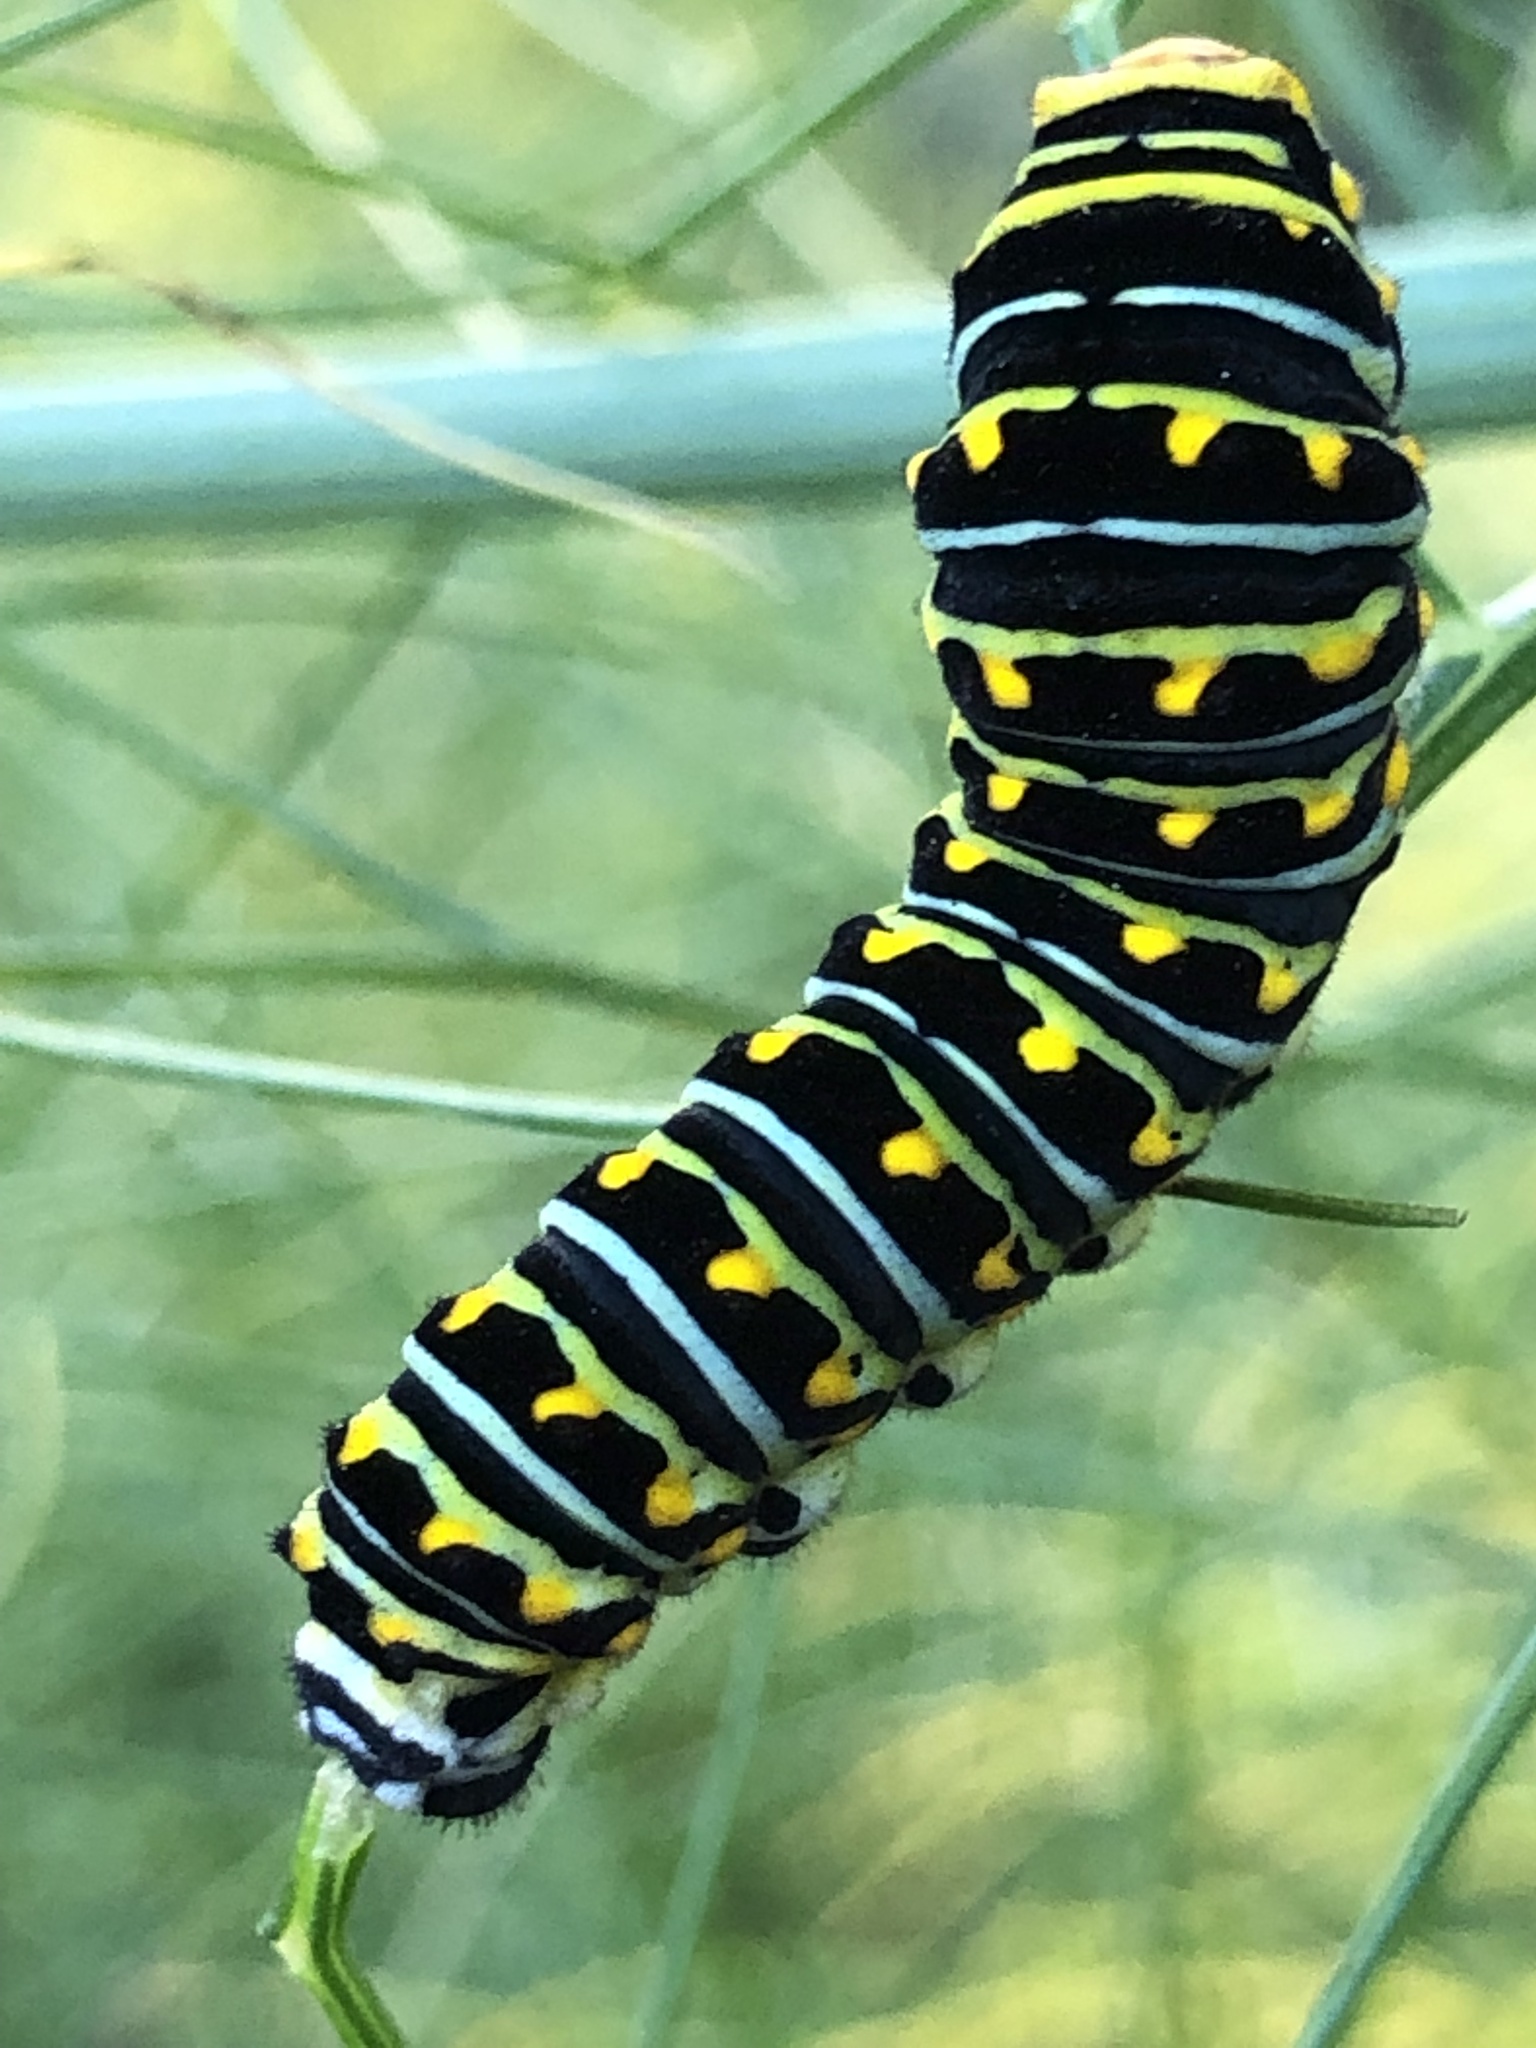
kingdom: Animalia
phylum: Arthropoda
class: Insecta
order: Lepidoptera
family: Papilionidae
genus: Papilio
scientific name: Papilio zelicaon
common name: Anise swallowtail
